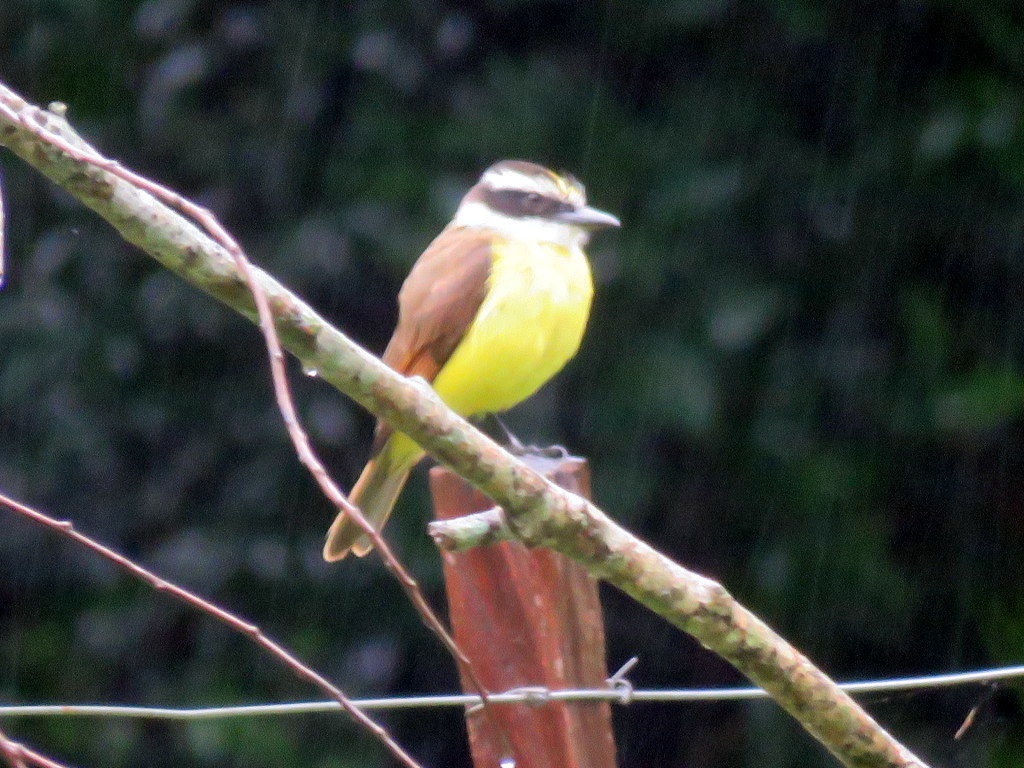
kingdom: Animalia
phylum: Chordata
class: Aves
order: Passeriformes
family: Tyrannidae
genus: Pitangus
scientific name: Pitangus sulphuratus
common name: Great kiskadee
